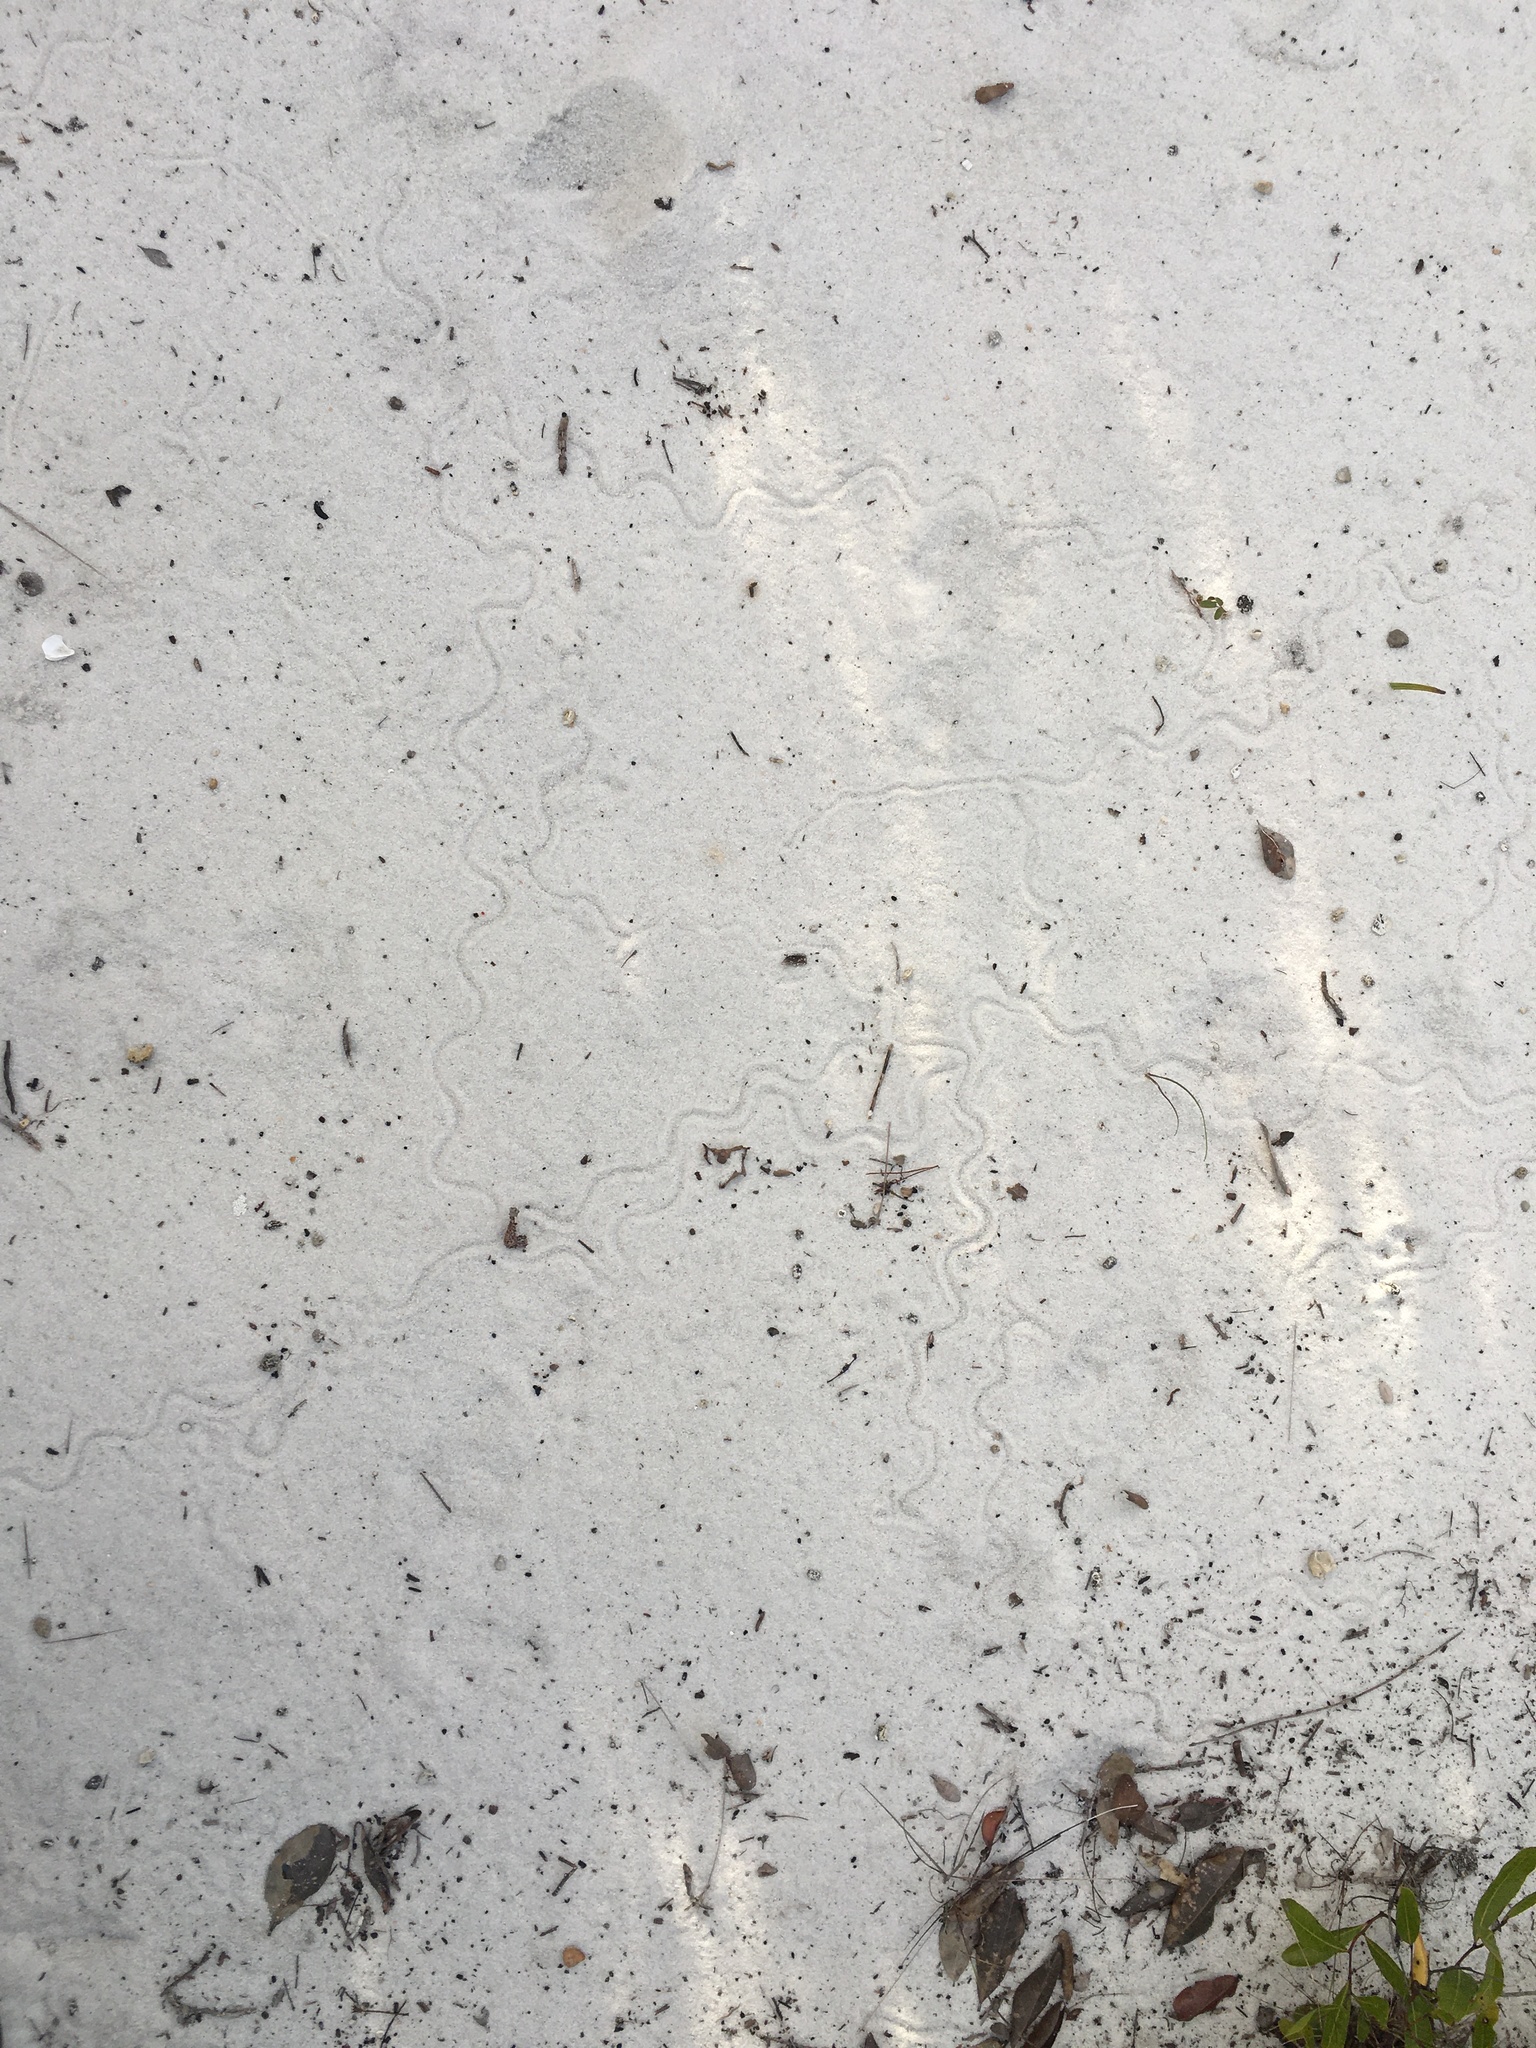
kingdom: Animalia
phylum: Chordata
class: Squamata
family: Scincidae
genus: Plestiodon
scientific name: Plestiodon reynoldsi
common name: Florida sand skink
